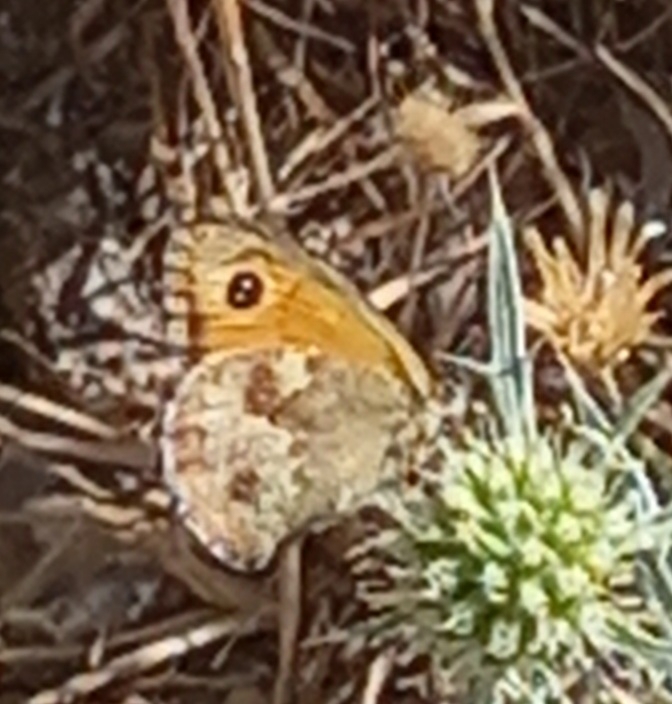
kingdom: Animalia
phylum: Arthropoda
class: Insecta
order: Lepidoptera
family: Nymphalidae
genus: Pyronia
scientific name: Pyronia tithonus
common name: Gatekeeper
